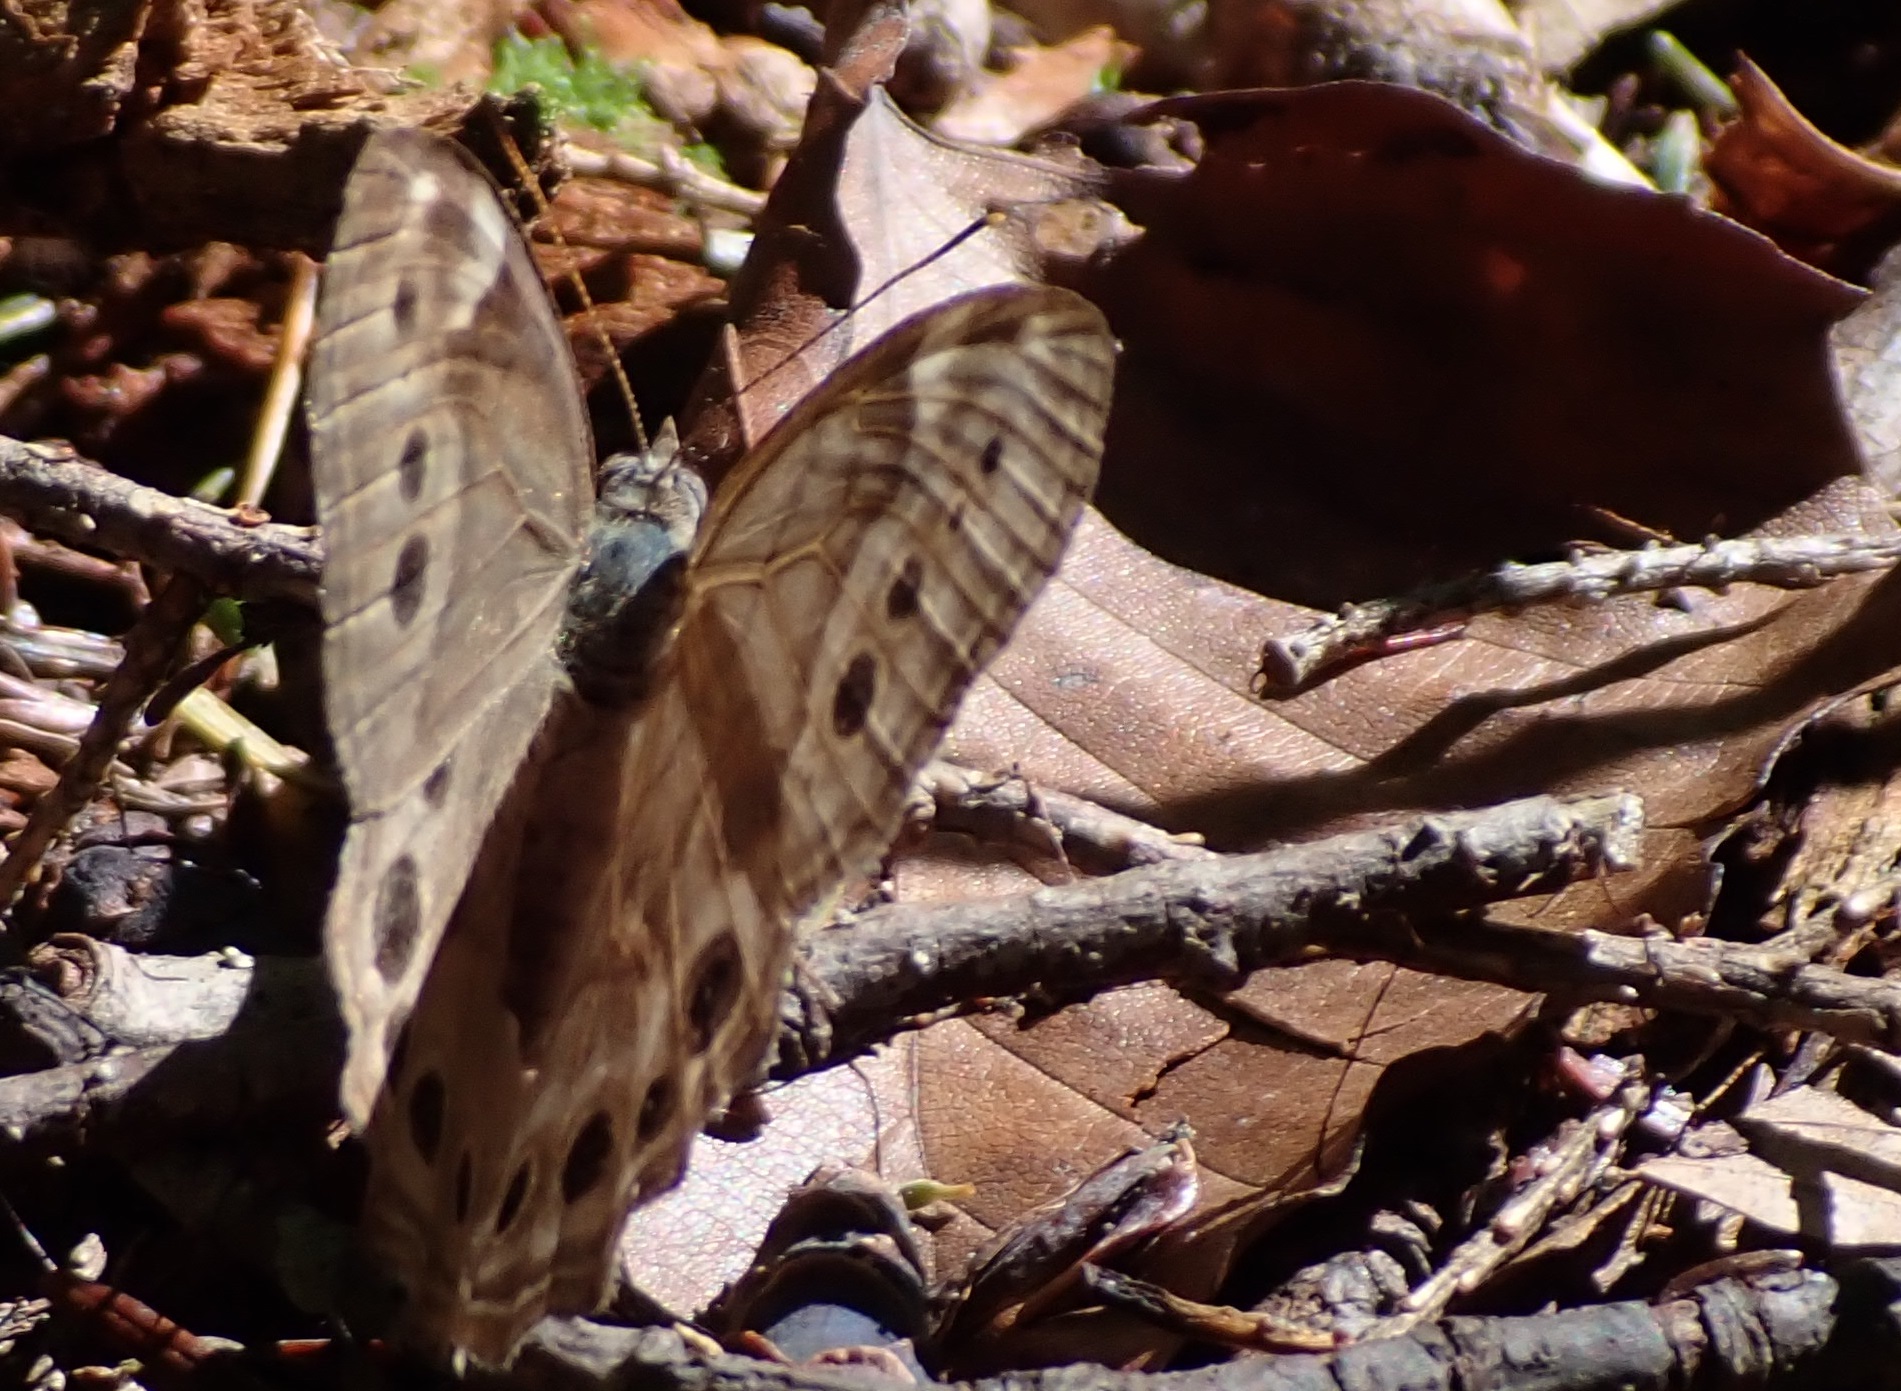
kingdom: Animalia
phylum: Arthropoda
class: Insecta
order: Lepidoptera
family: Nymphalidae
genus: Lethe
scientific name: Lethe anthedon
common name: Northern pearly-eye
